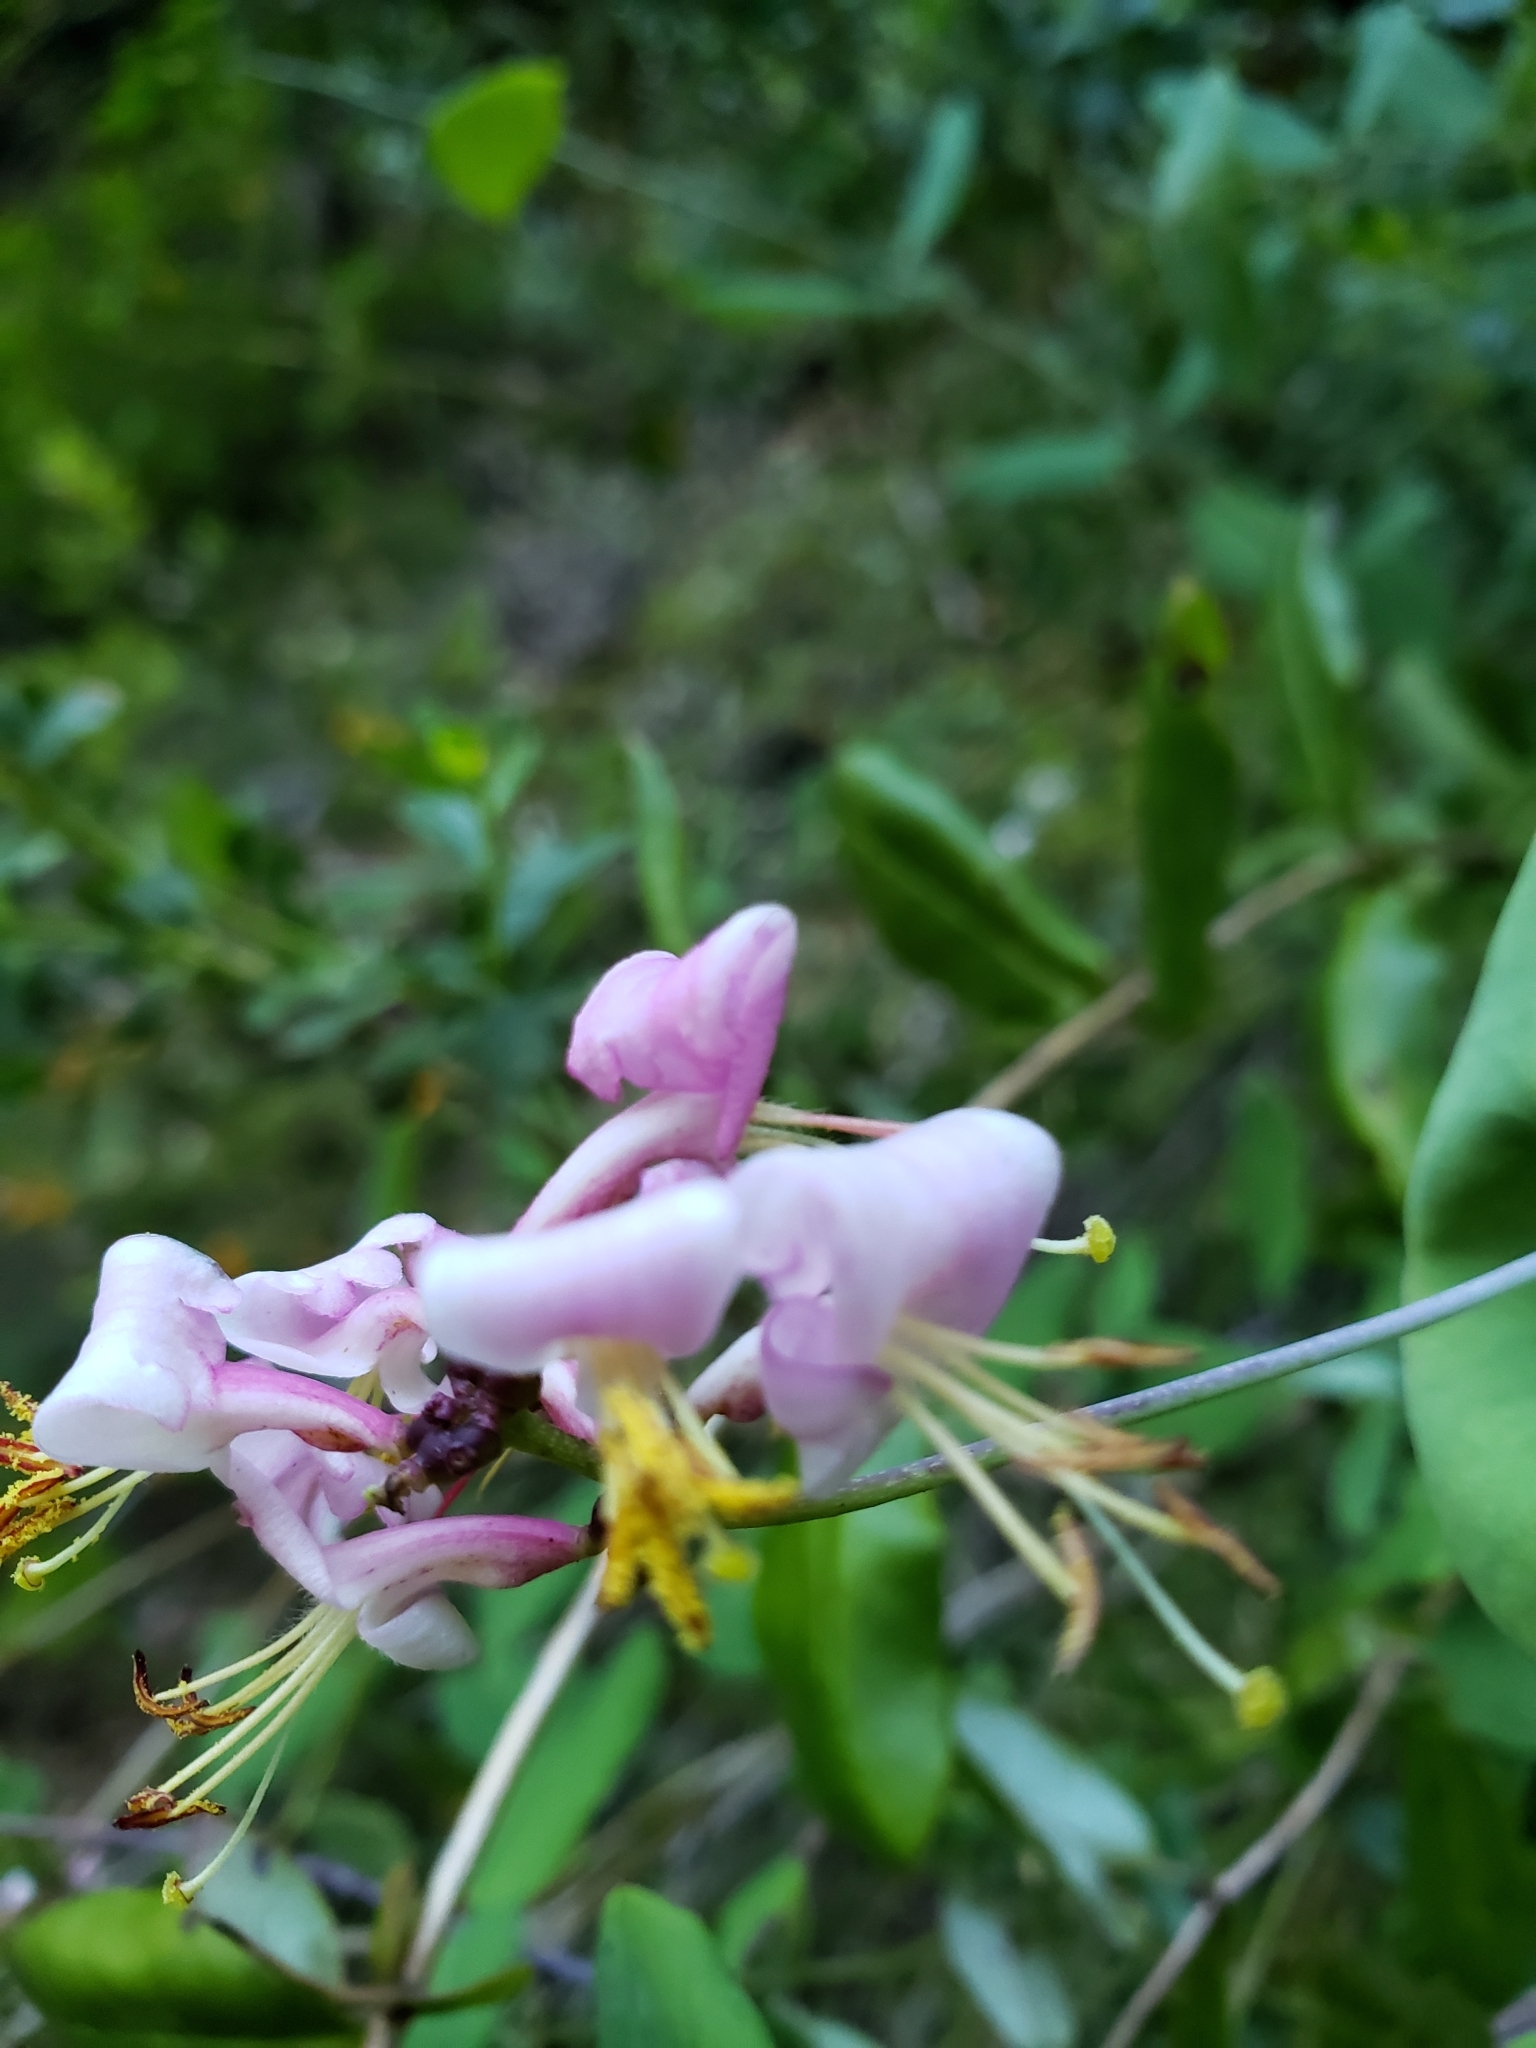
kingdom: Plantae
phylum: Tracheophyta
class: Magnoliopsida
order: Dipsacales
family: Caprifoliaceae
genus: Lonicera
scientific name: Lonicera hispidula
